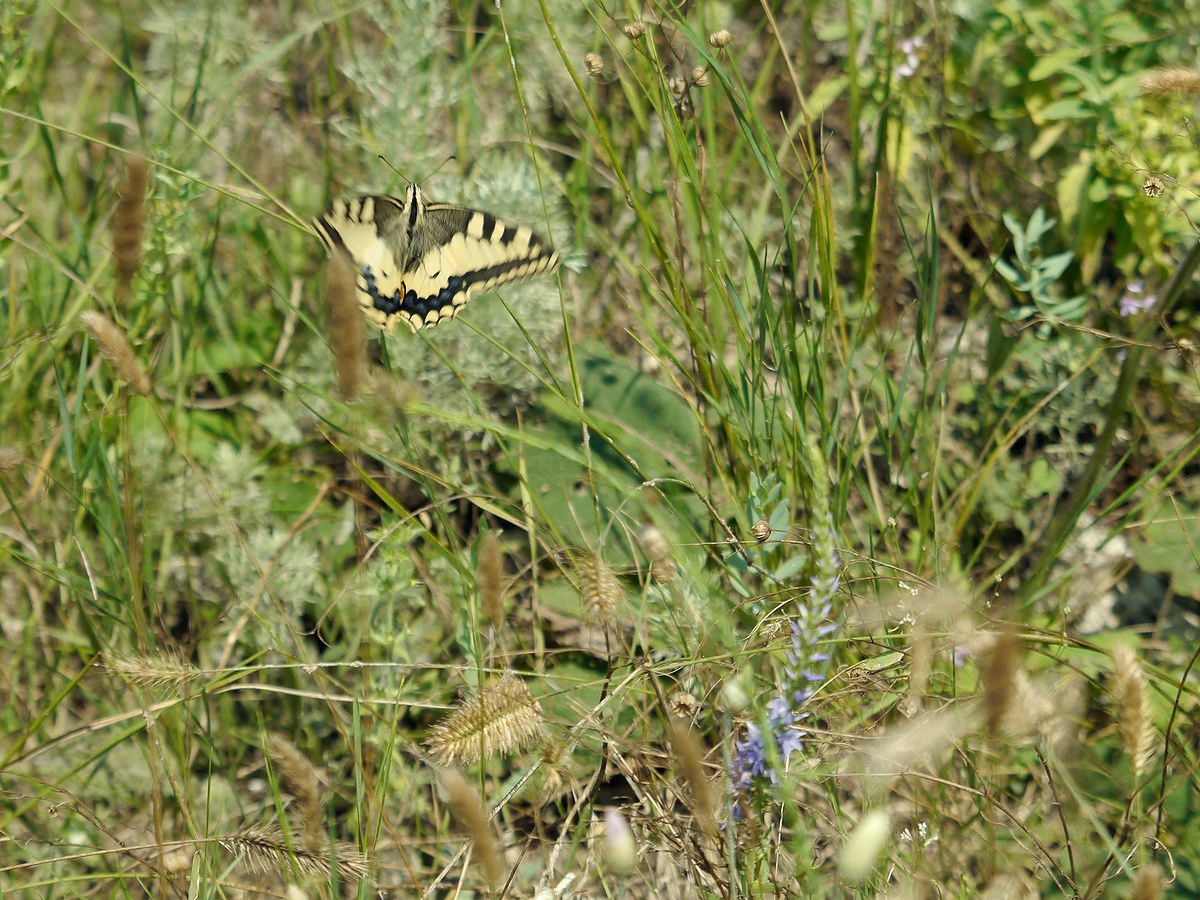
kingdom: Animalia
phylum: Arthropoda
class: Insecta
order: Lepidoptera
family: Papilionidae
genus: Papilio
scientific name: Papilio machaon
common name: Swallowtail
